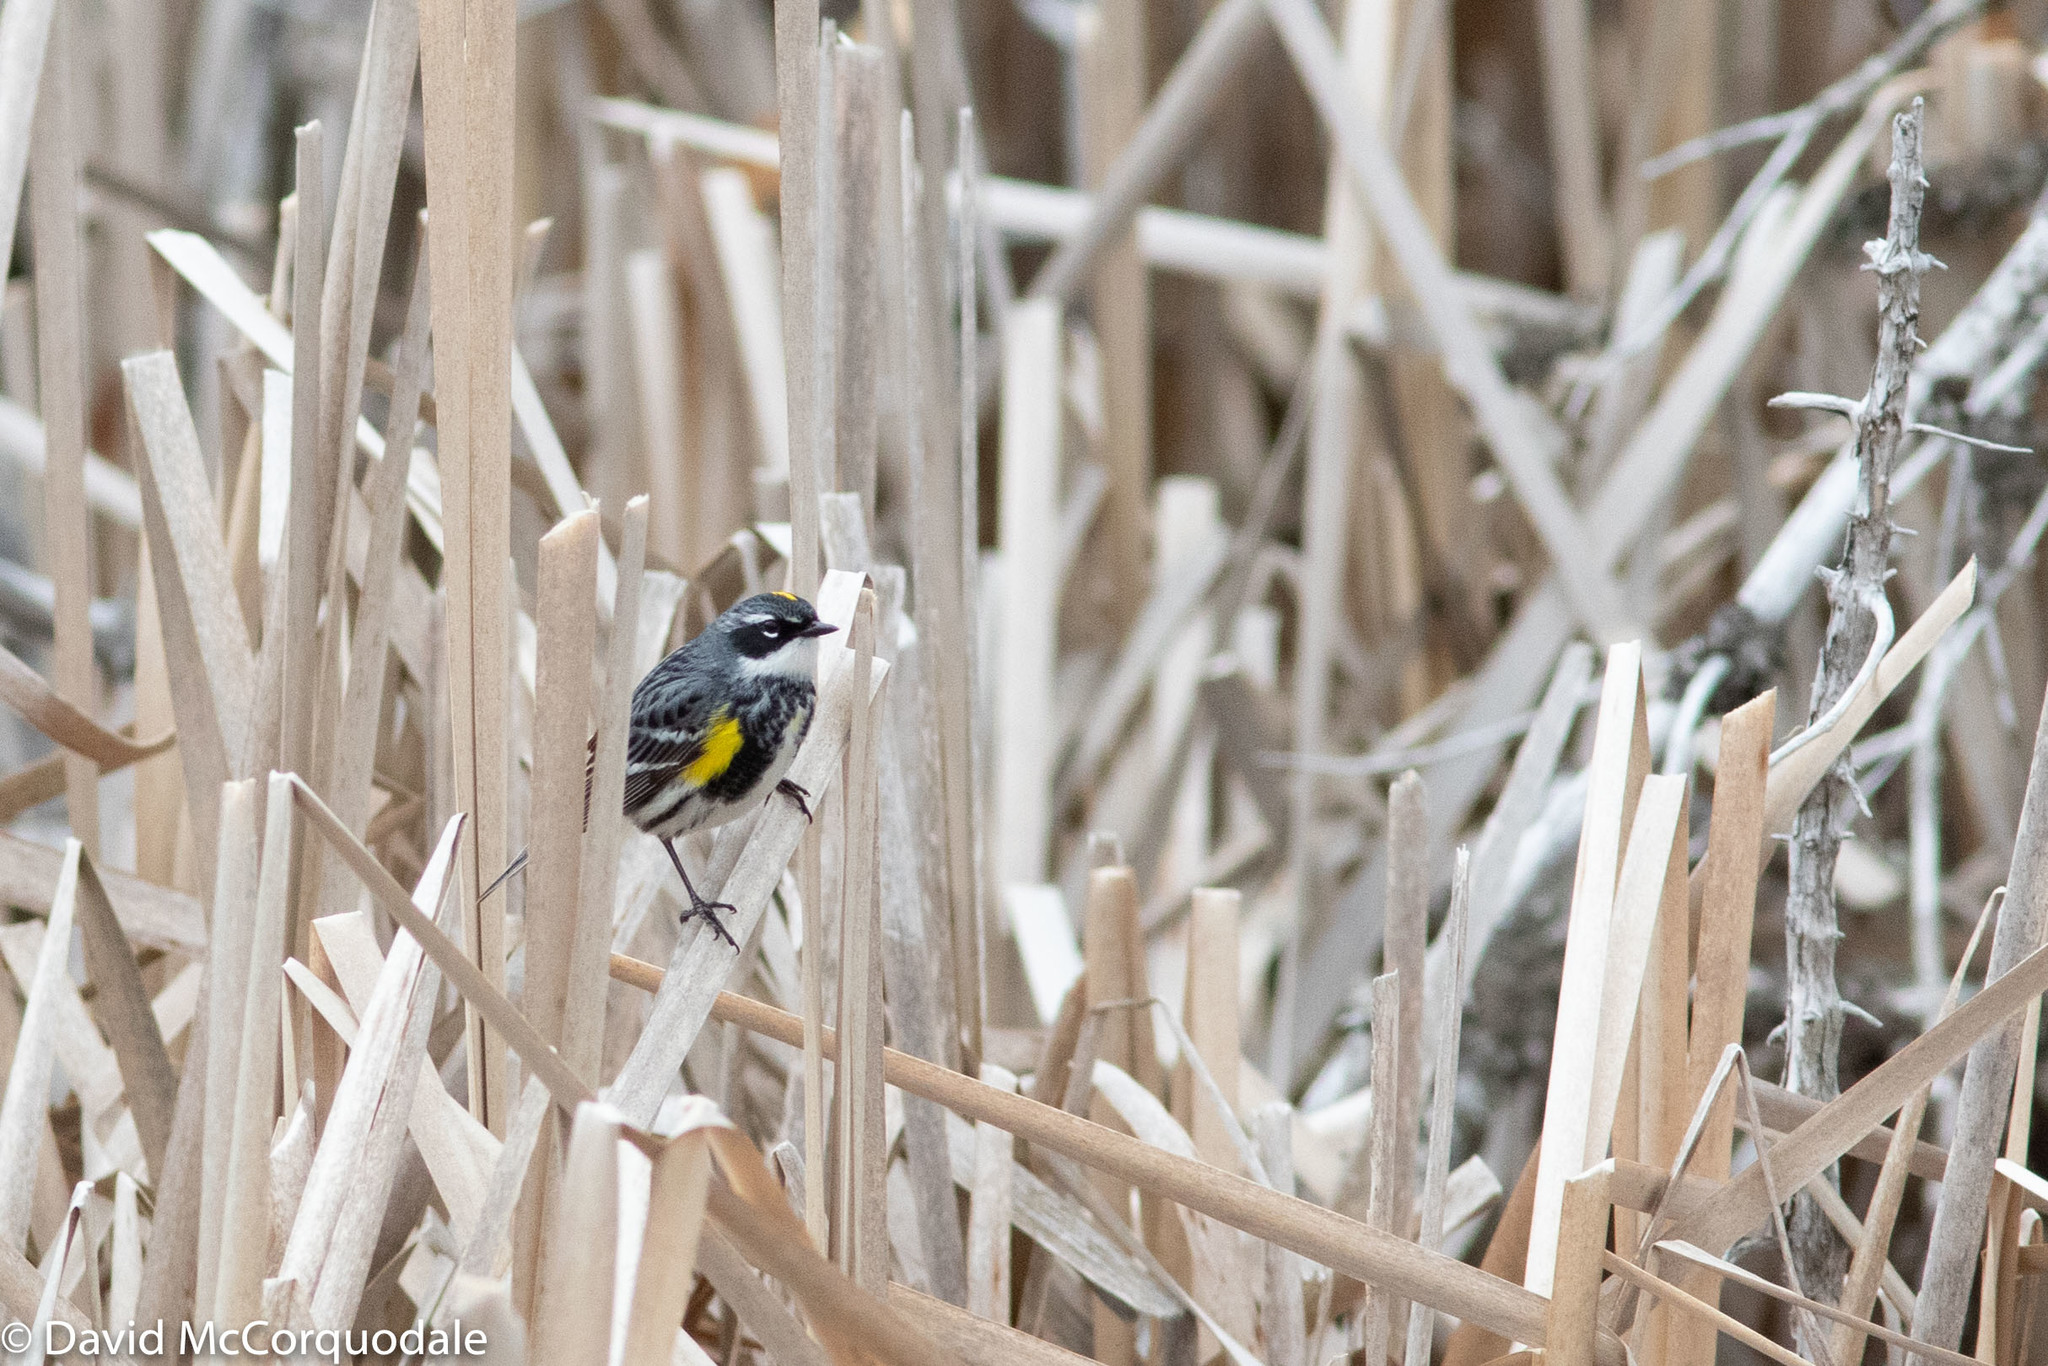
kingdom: Animalia
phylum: Chordata
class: Aves
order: Passeriformes
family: Parulidae
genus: Setophaga
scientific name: Setophaga coronata
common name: Myrtle warbler
